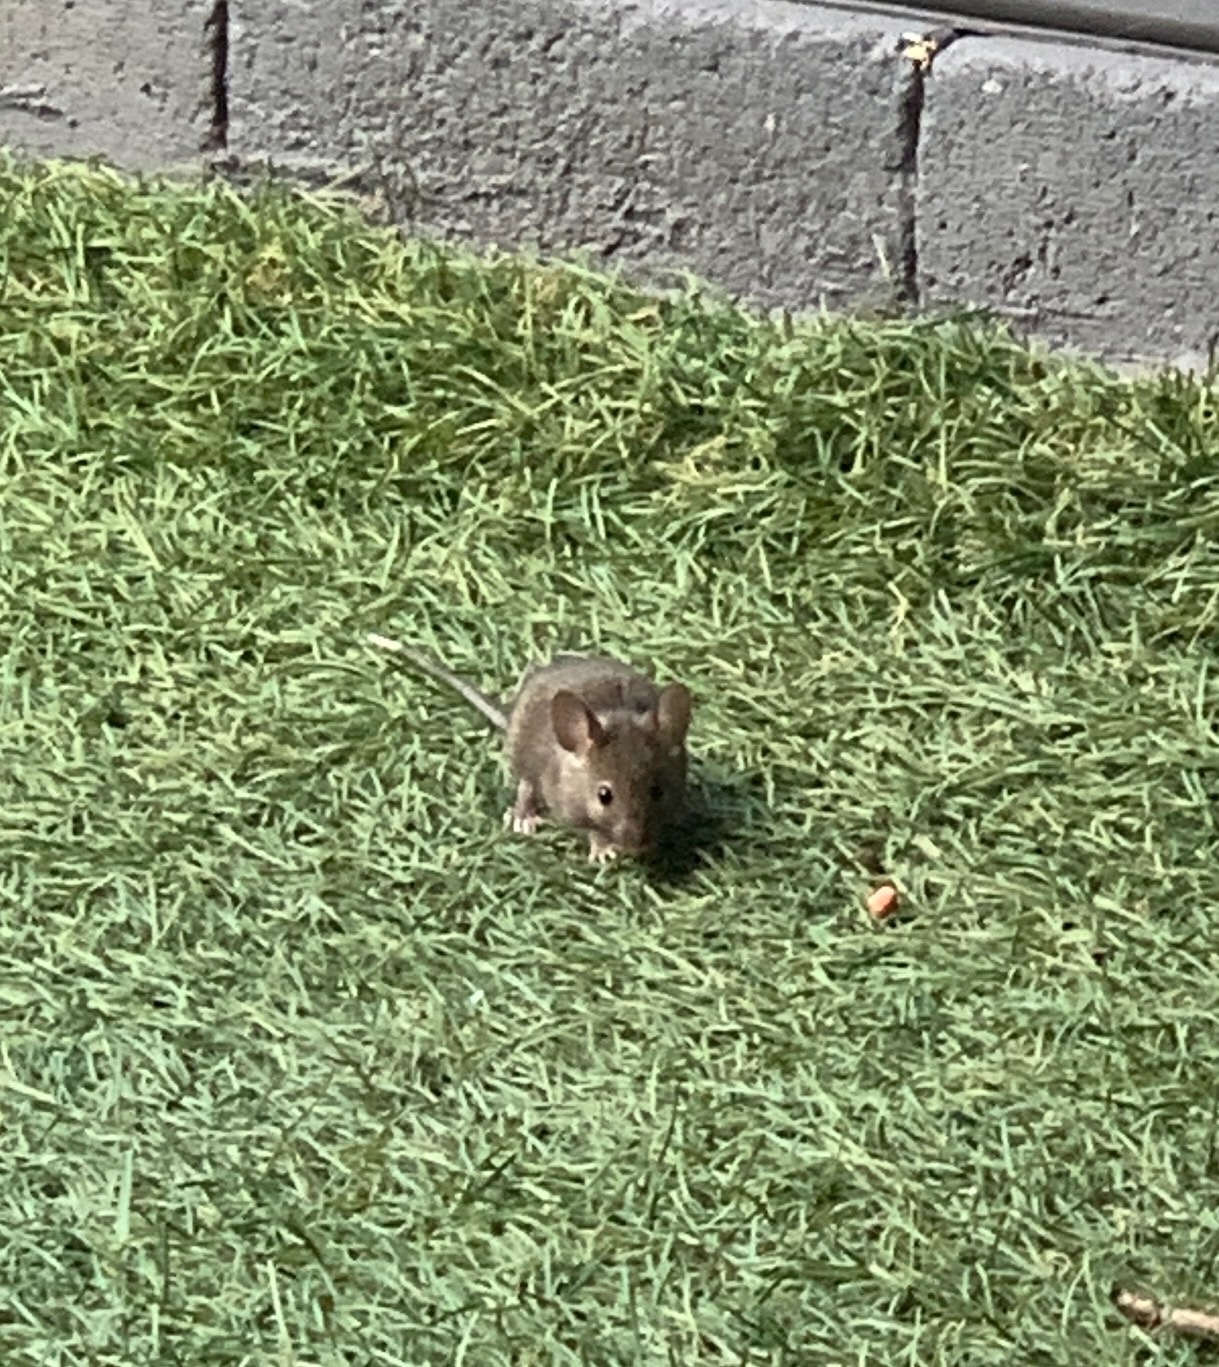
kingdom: Animalia
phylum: Chordata
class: Mammalia
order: Rodentia
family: Muridae
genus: Mus
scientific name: Mus musculus
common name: House mouse
